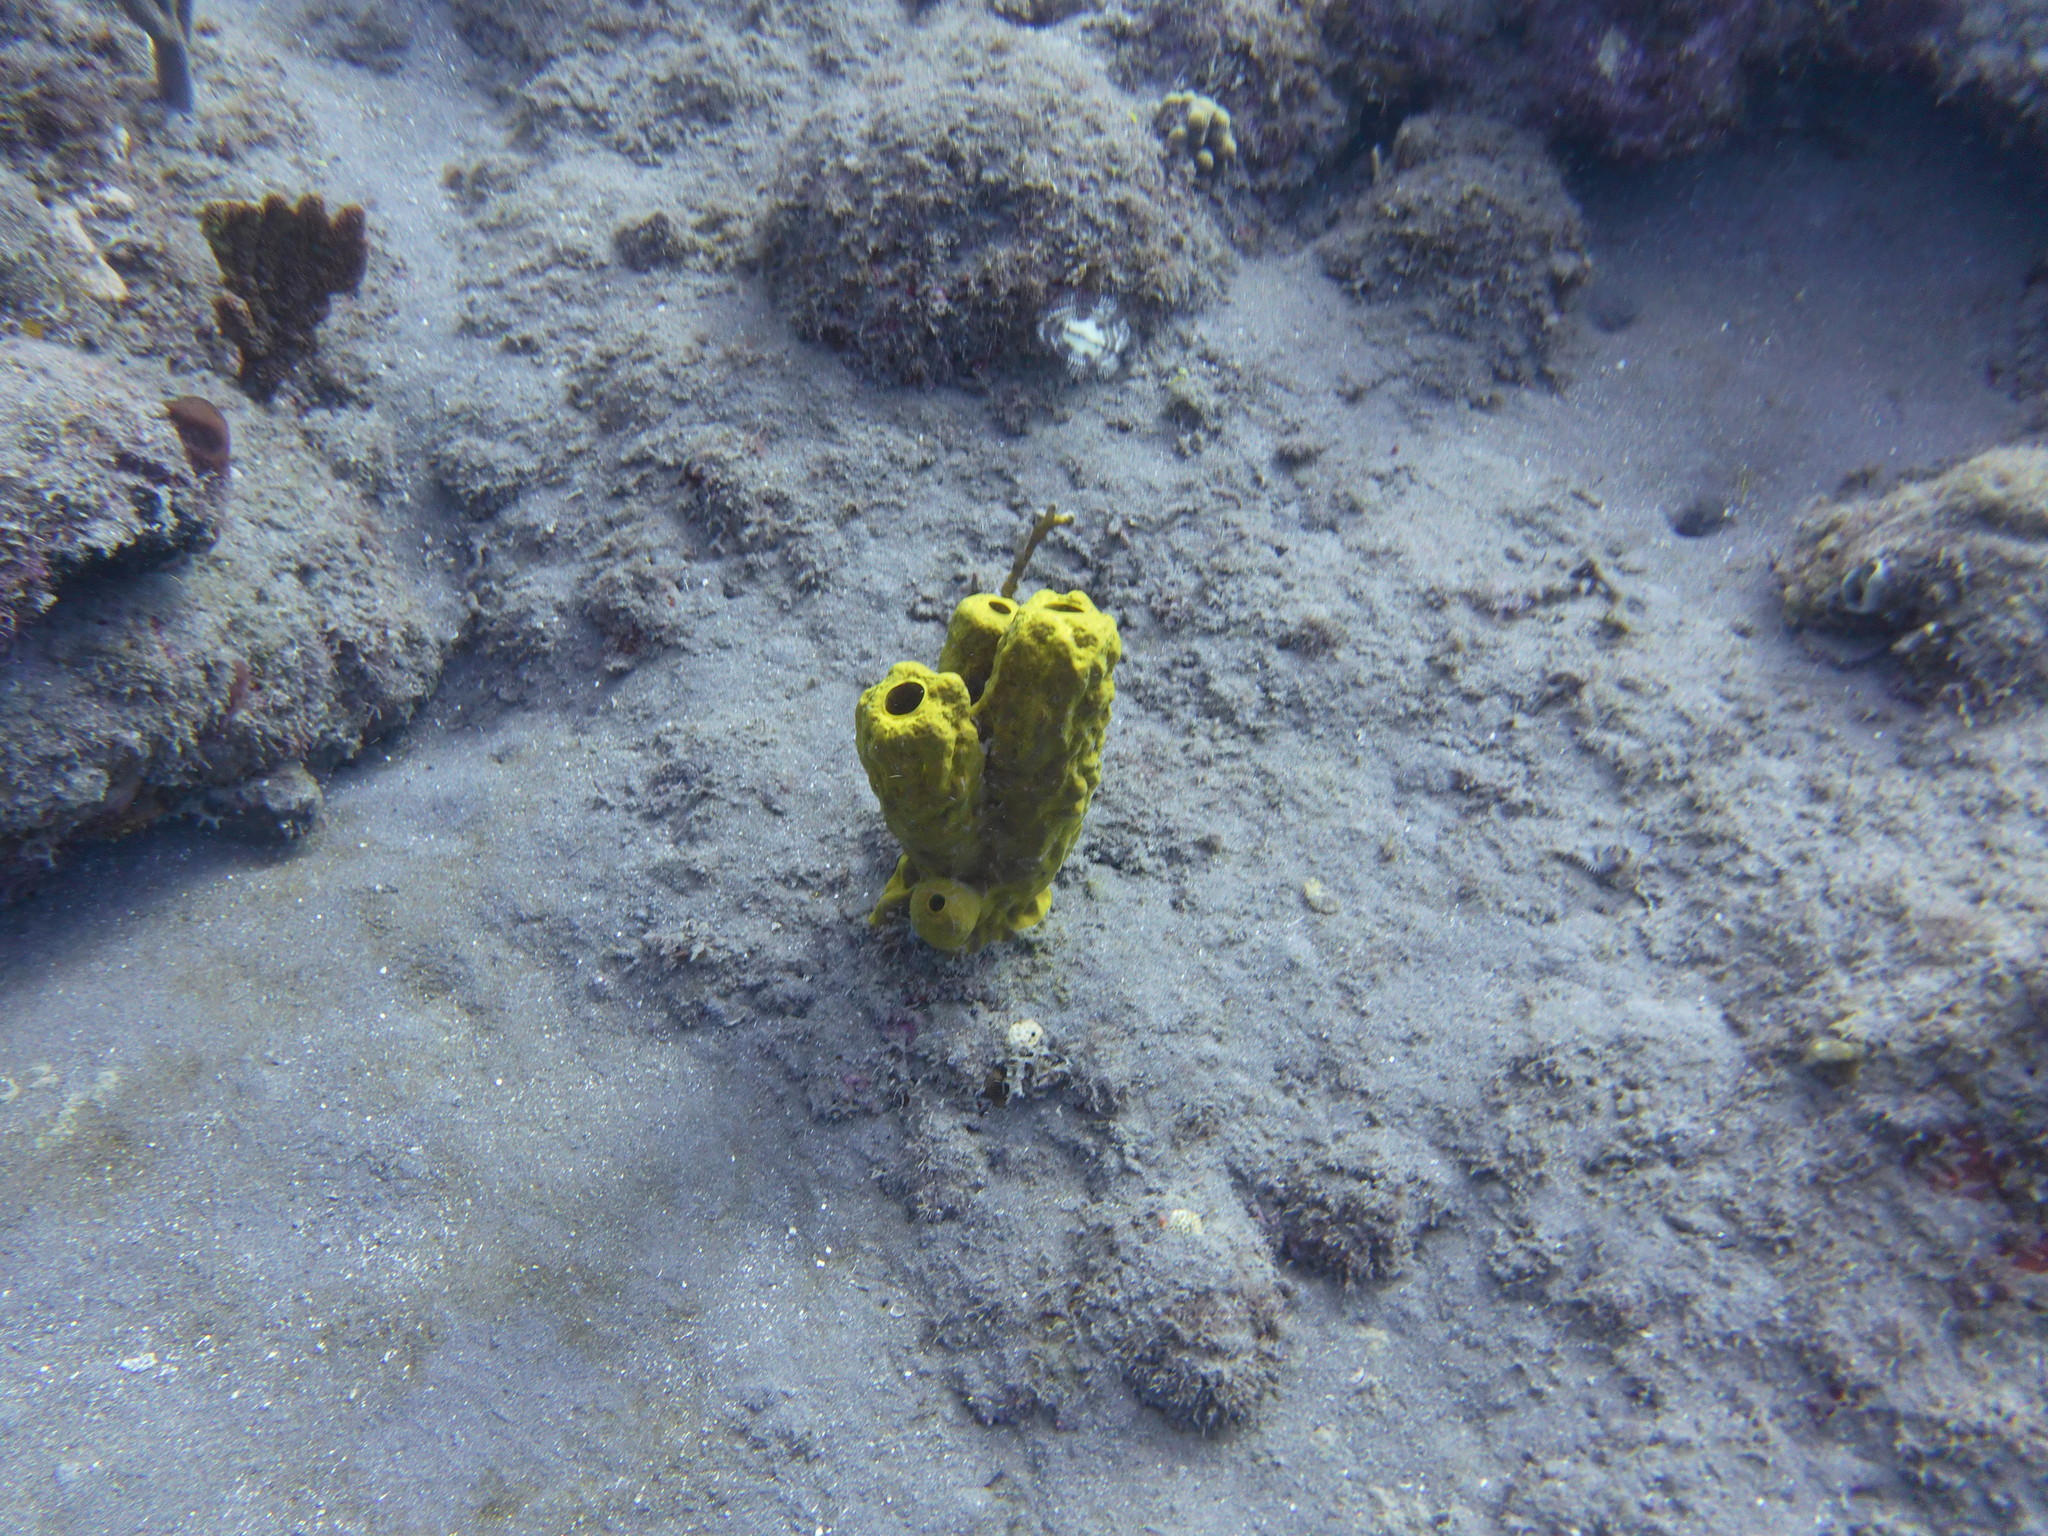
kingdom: Animalia
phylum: Porifera
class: Demospongiae
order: Verongiida
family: Aplysinidae
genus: Aplysina
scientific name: Aplysina fistularis
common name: Candle sponge
